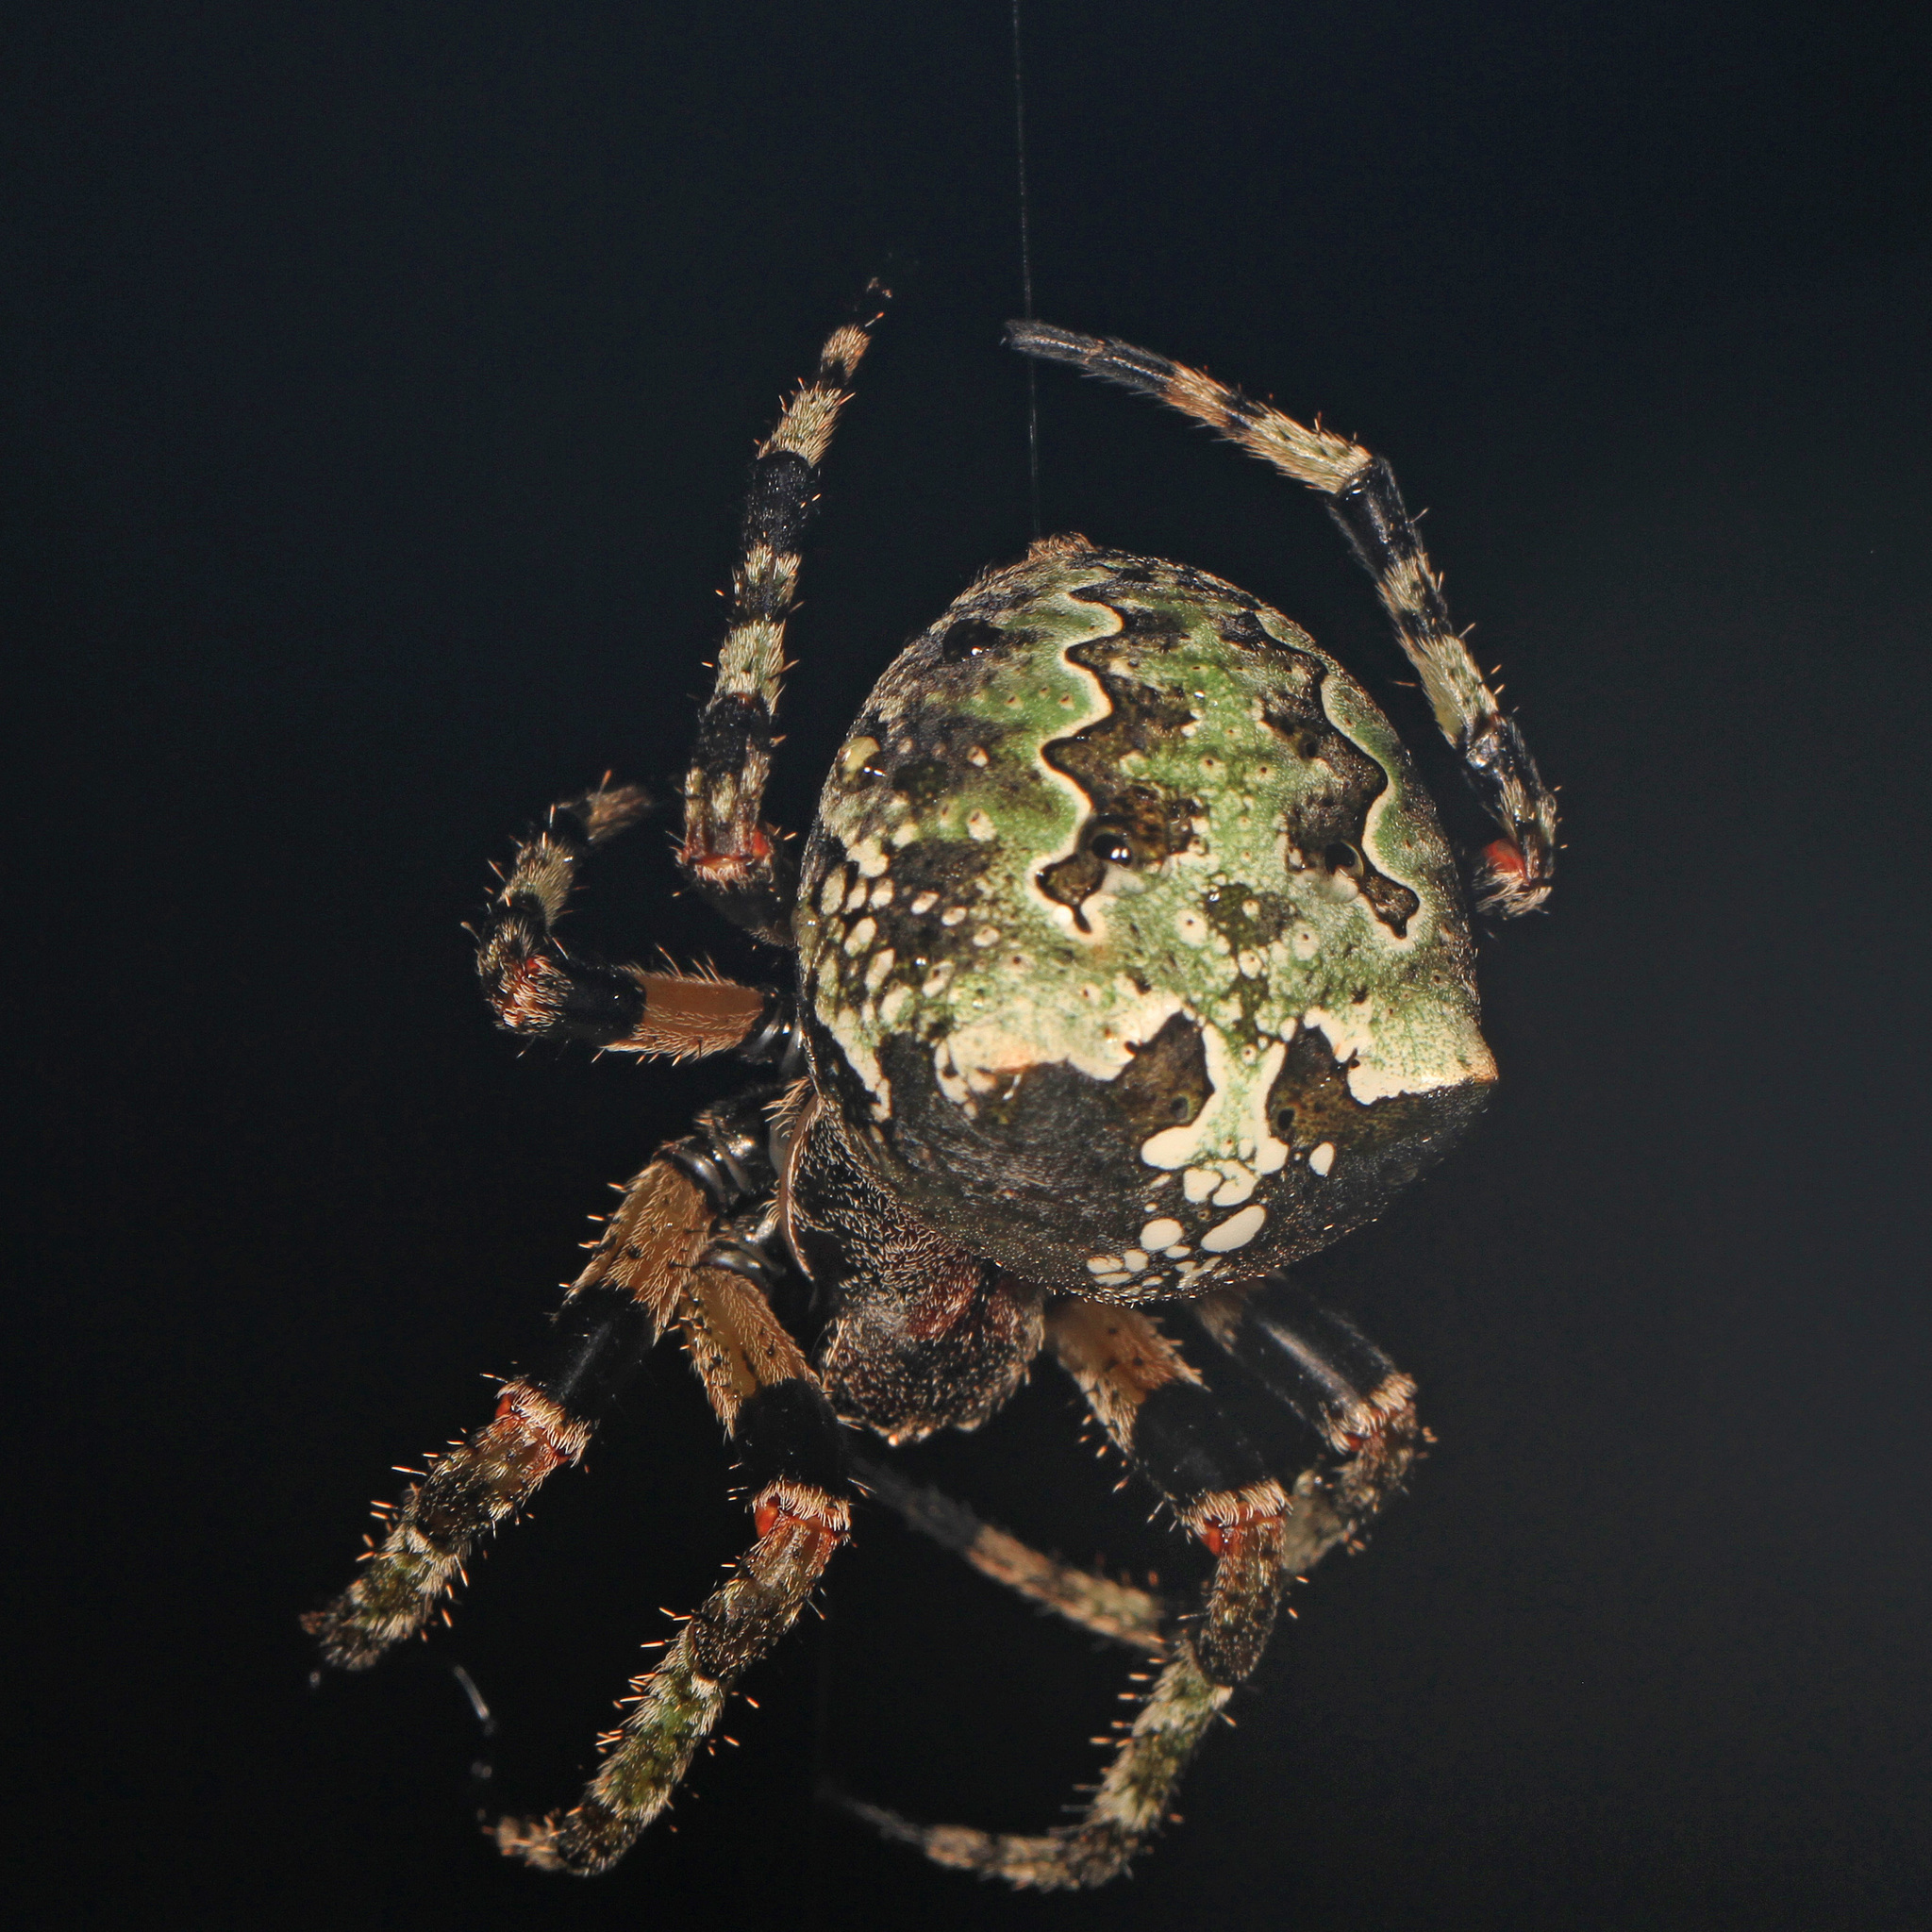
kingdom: Animalia
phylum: Arthropoda
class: Arachnida
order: Araneae
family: Araneidae
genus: Araneus
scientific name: Araneus bicentenarius
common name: Giant lichen orbweaver
